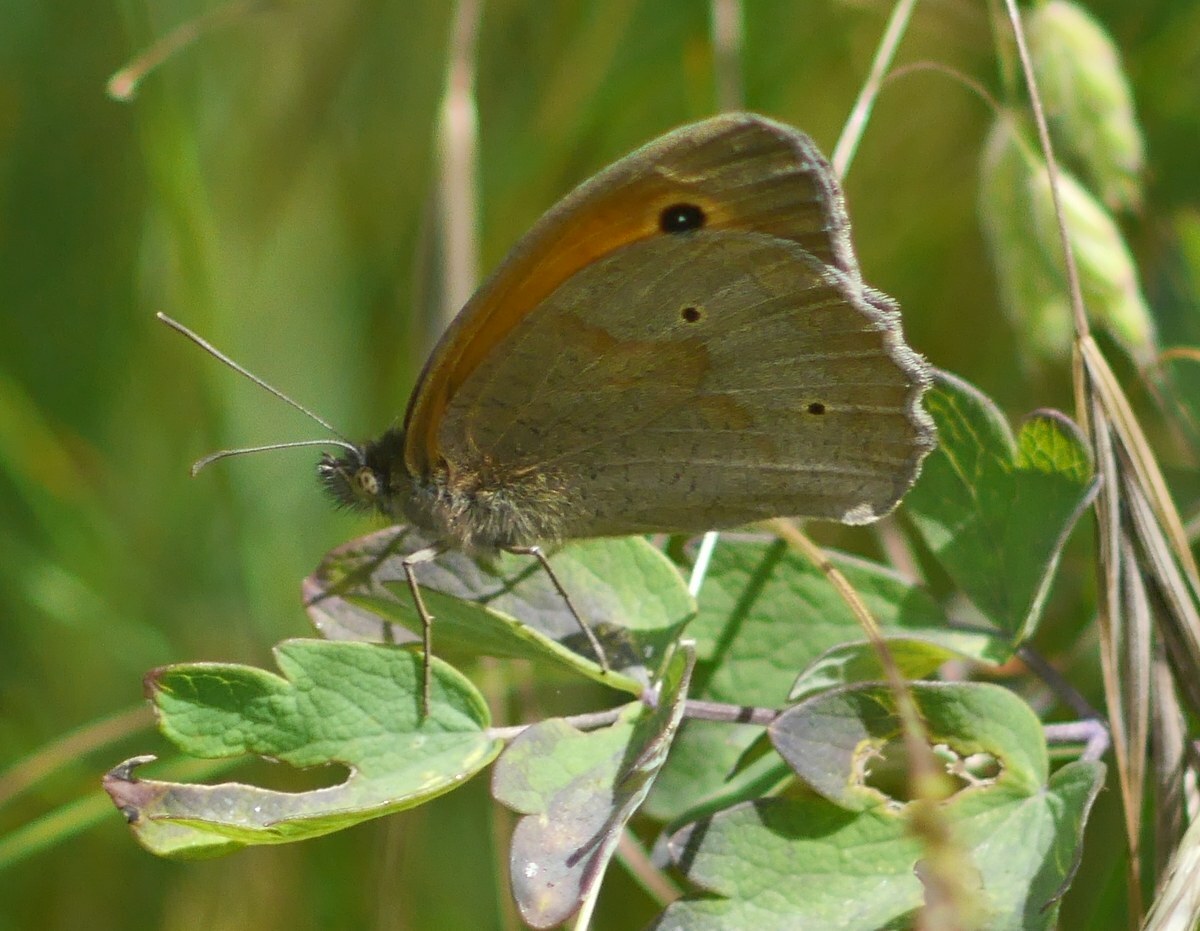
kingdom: Animalia
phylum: Arthropoda
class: Insecta
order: Lepidoptera
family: Nymphalidae
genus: Maniola
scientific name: Maniola jurtina
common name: Meadow brown
